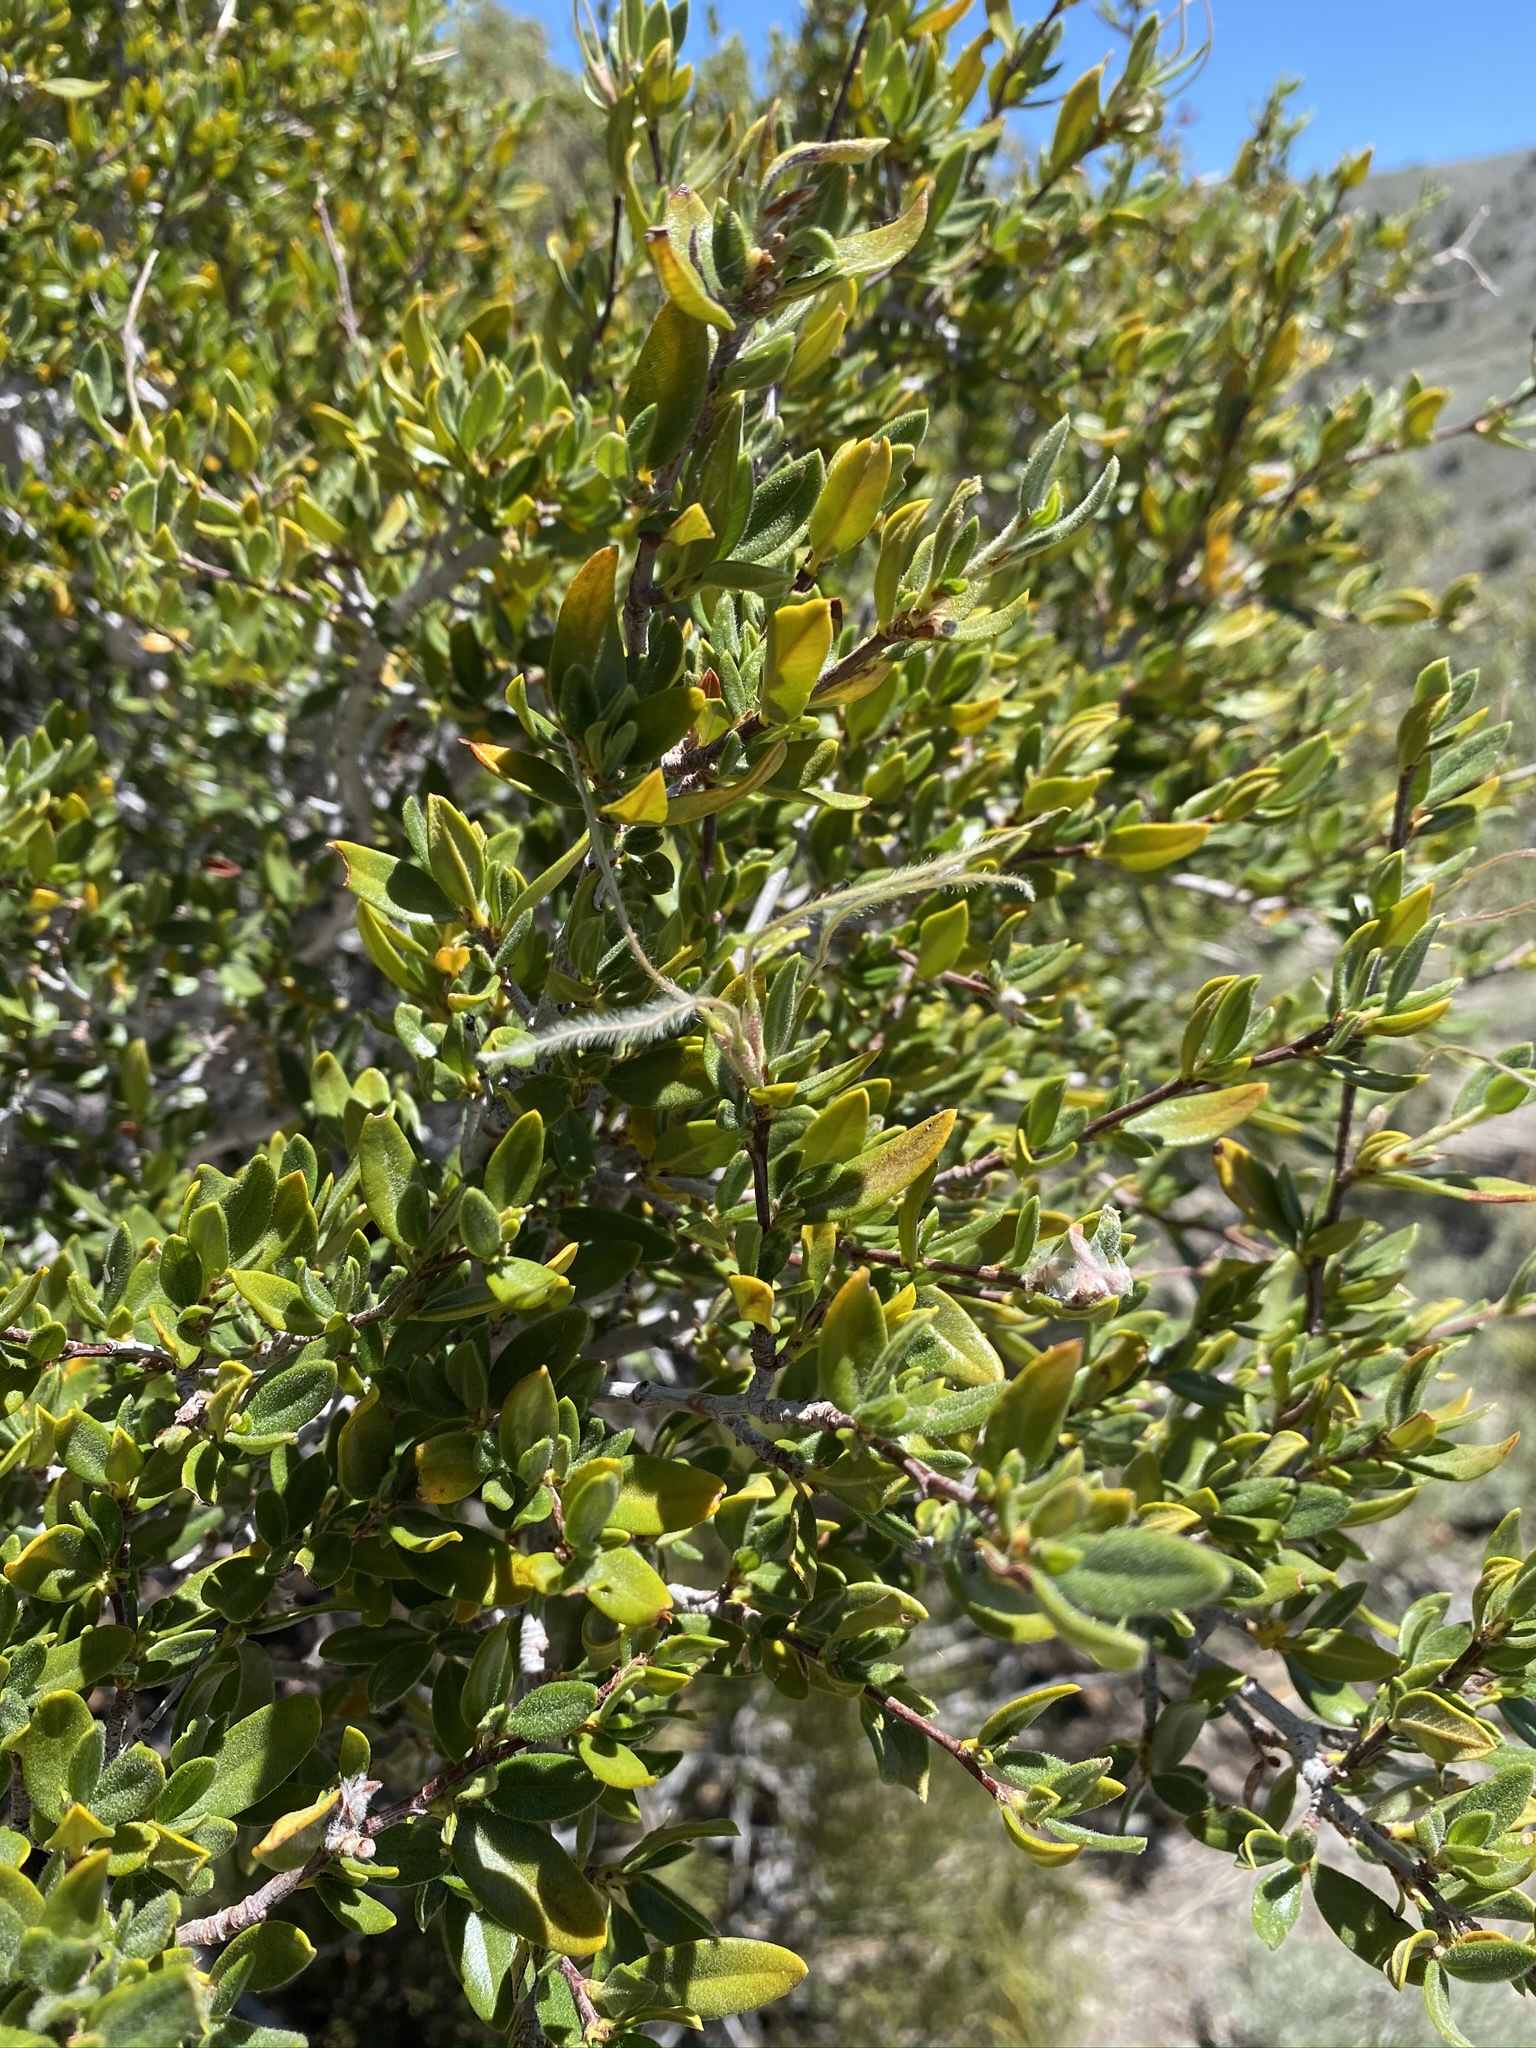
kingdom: Plantae
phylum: Tracheophyta
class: Magnoliopsida
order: Rosales
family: Rosaceae
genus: Cercocarpus
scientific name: Cercocarpus ledifolius
